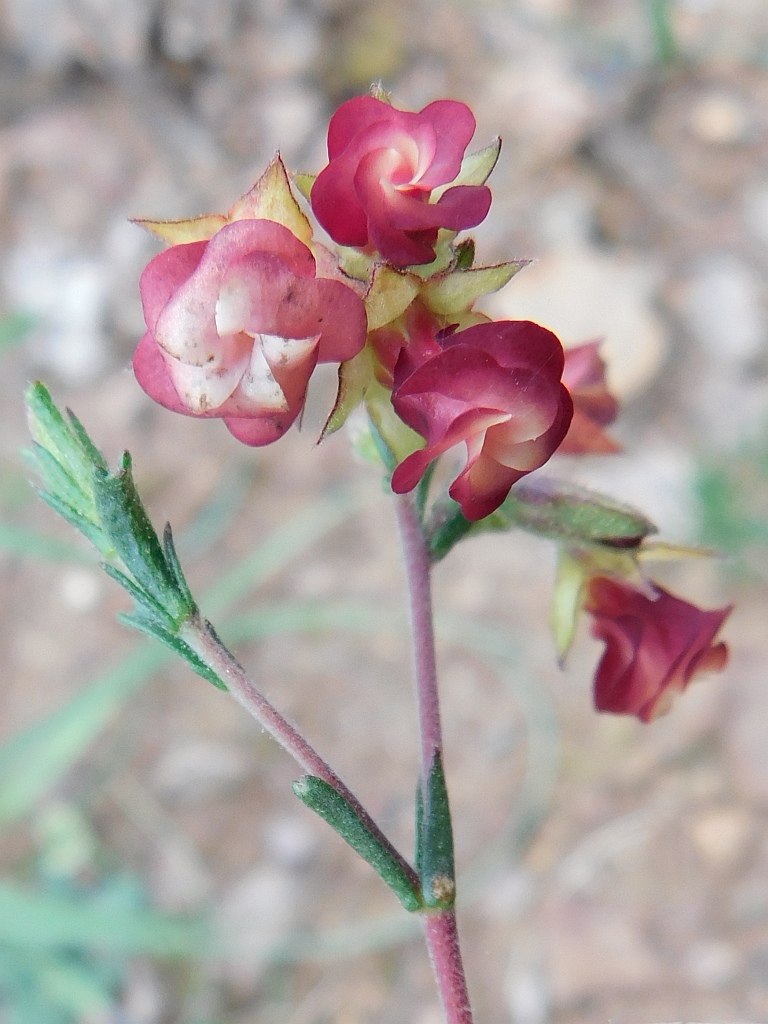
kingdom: Plantae
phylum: Tracheophyta
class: Magnoliopsida
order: Malvales
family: Malvaceae
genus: Hermannia
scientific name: Hermannia flammula
